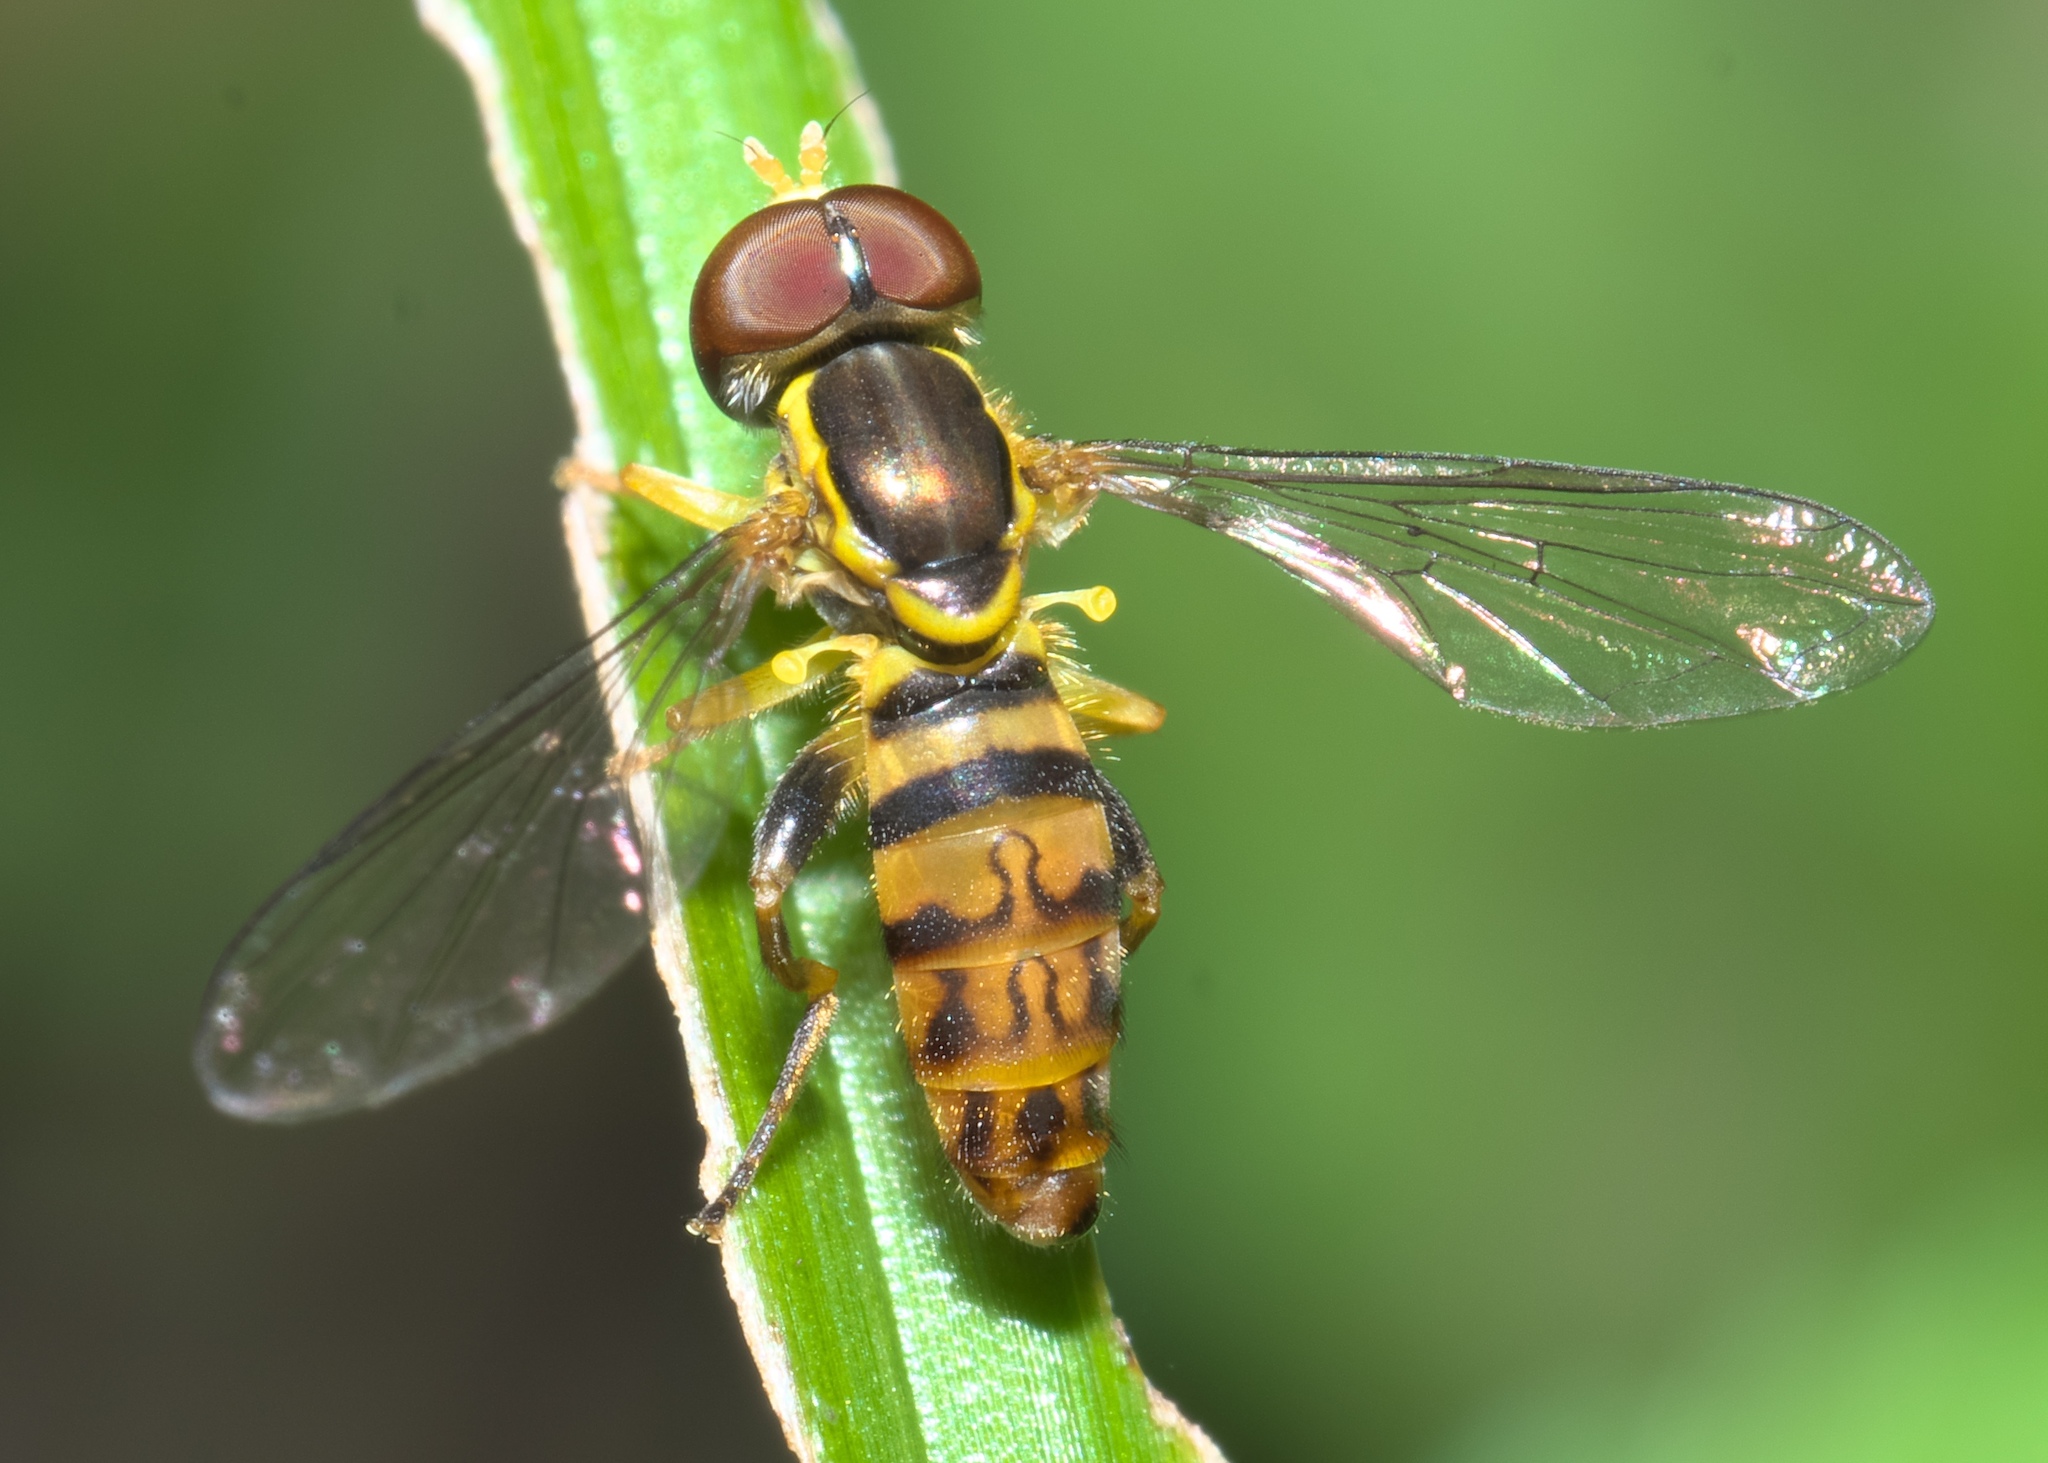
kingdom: Animalia
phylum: Arthropoda
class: Insecta
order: Diptera
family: Syrphidae
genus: Toxomerus
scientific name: Toxomerus geminatus
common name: Eastern calligrapher
